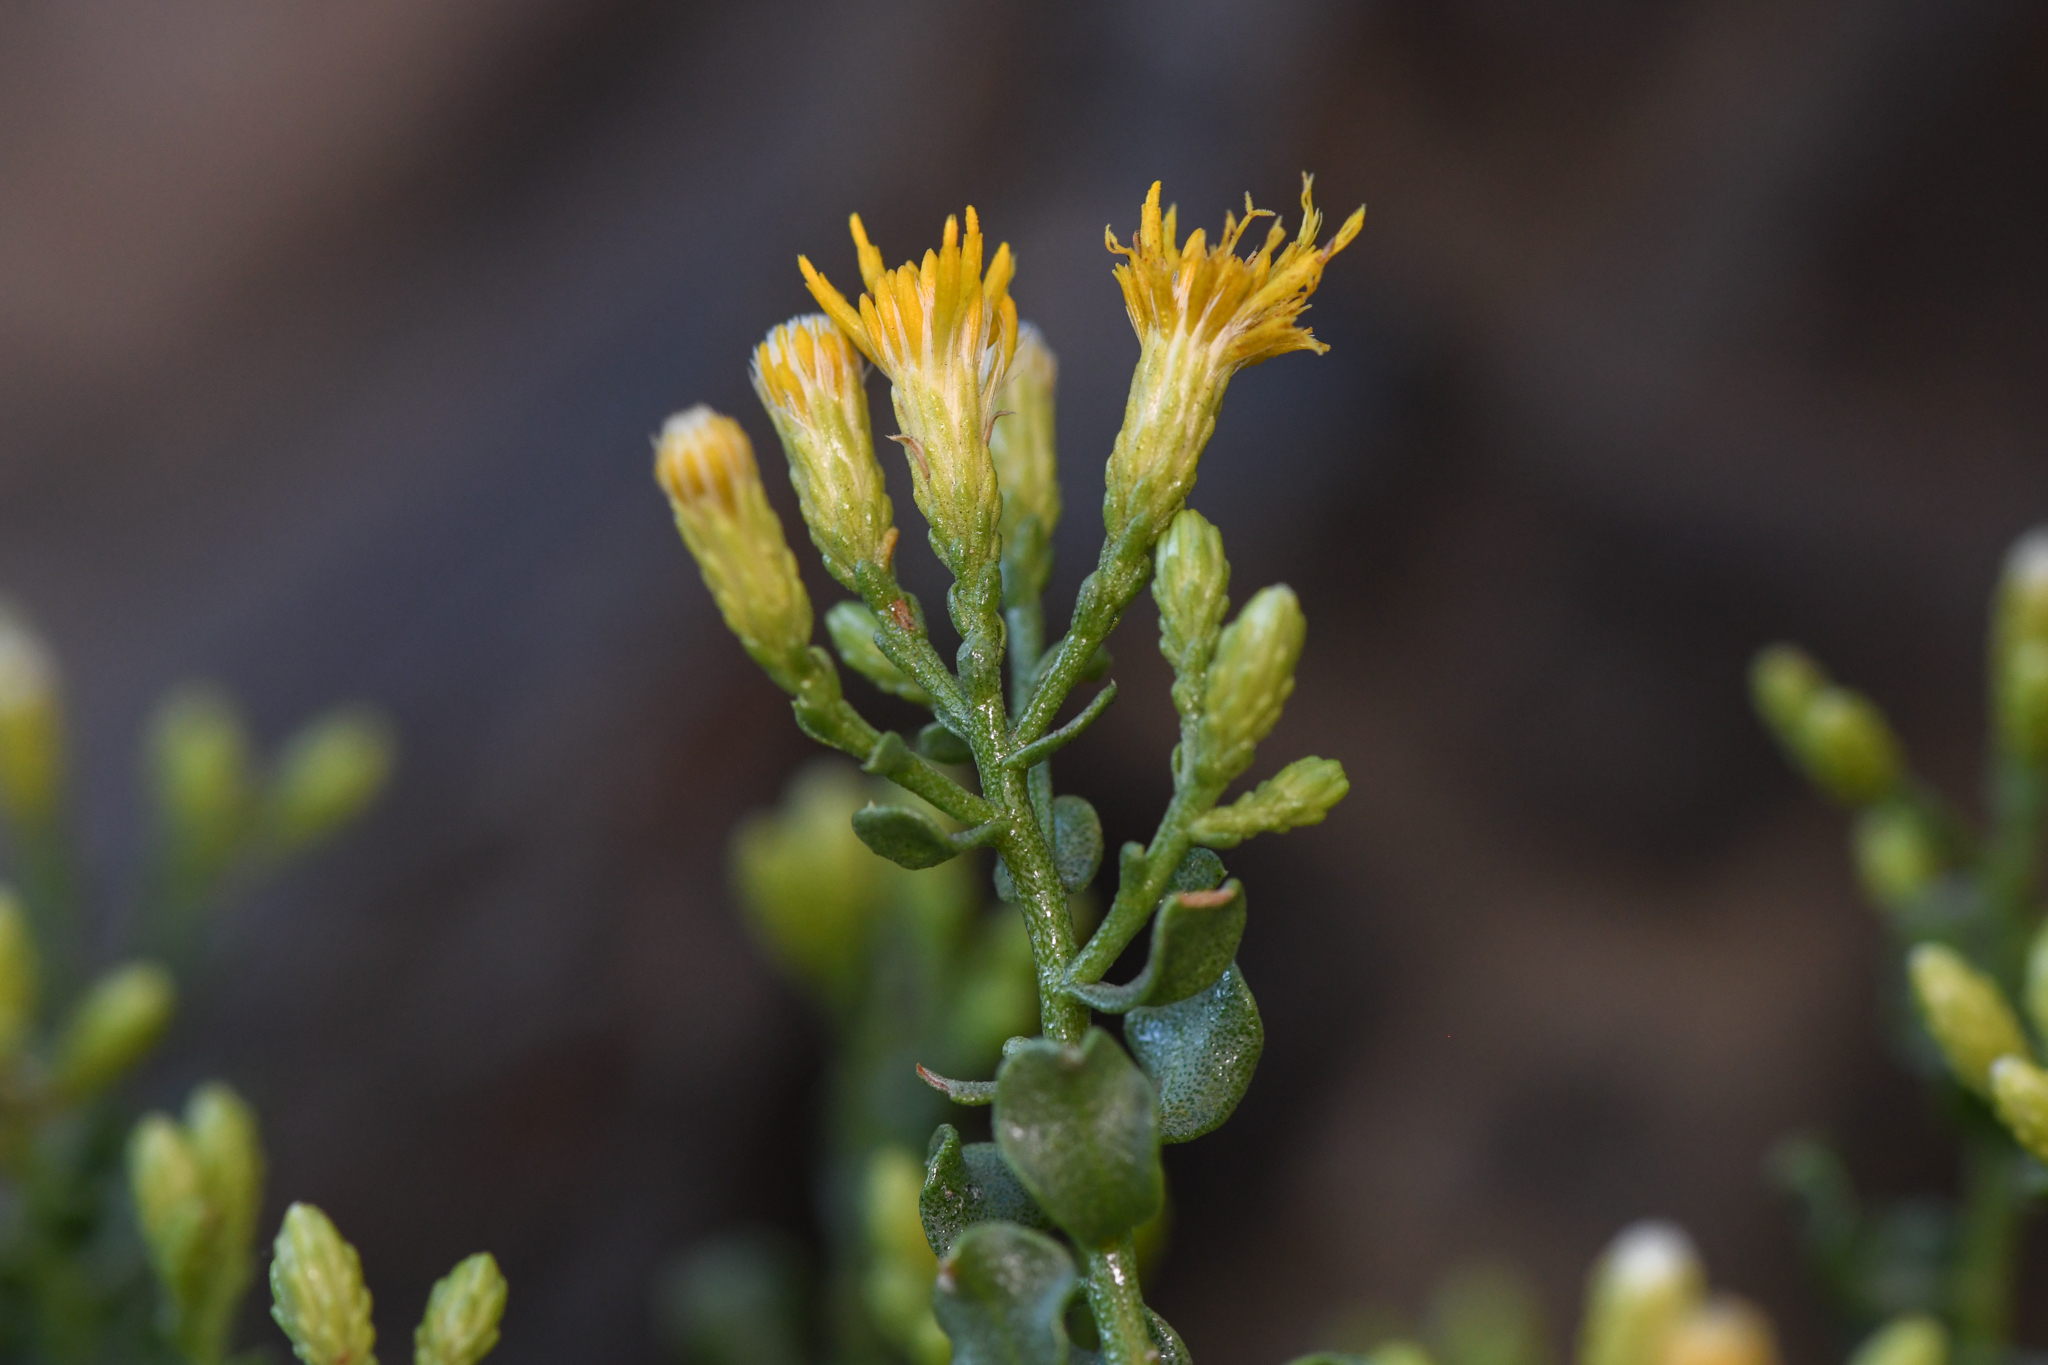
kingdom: Plantae
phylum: Tracheophyta
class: Magnoliopsida
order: Asterales
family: Asteraceae
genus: Ericameria
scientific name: Ericameria cuneata
